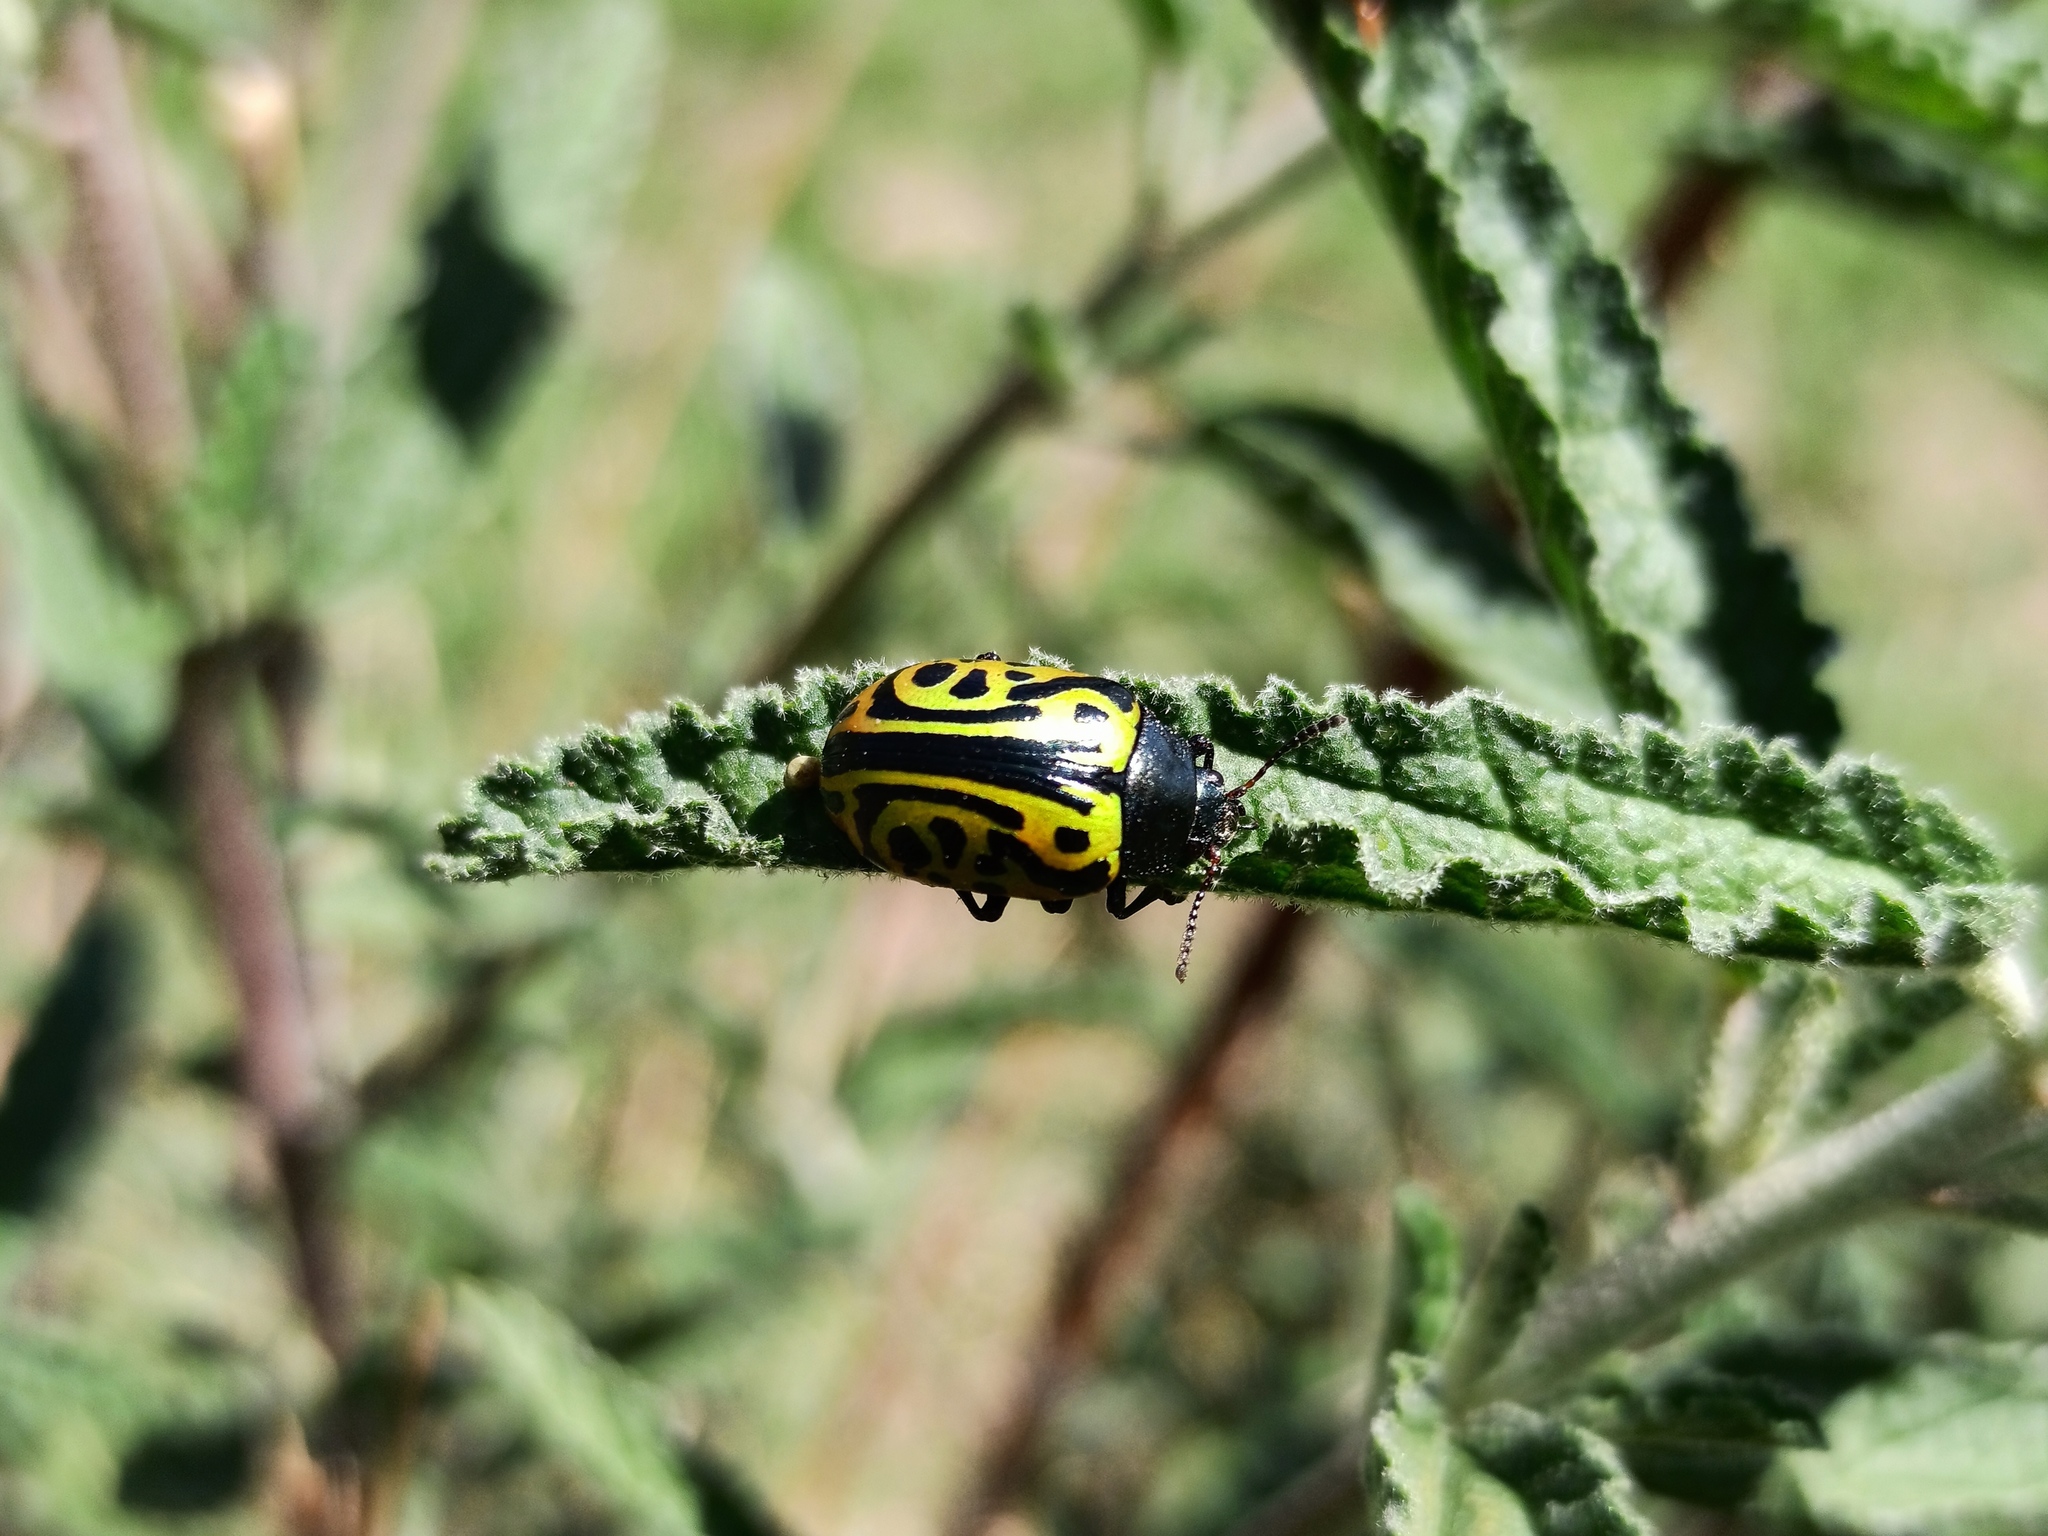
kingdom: Animalia
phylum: Arthropoda
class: Insecta
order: Coleoptera
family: Chrysomelidae
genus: Calligrapha
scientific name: Calligrapha mexicana
